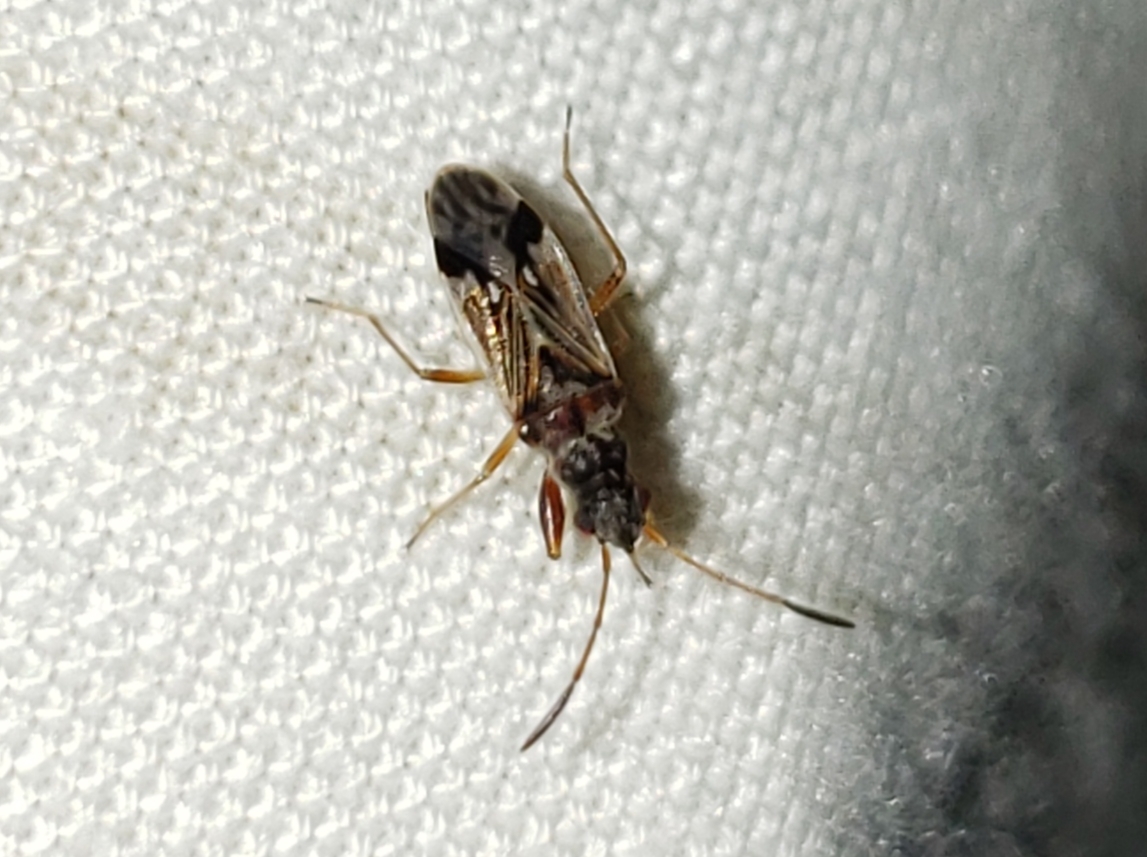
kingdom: Animalia
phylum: Arthropoda
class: Insecta
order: Hemiptera
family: Rhyparochromidae
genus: Pseudopachybrachius
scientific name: Pseudopachybrachius vinctus
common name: Dirt-colored seed bug
